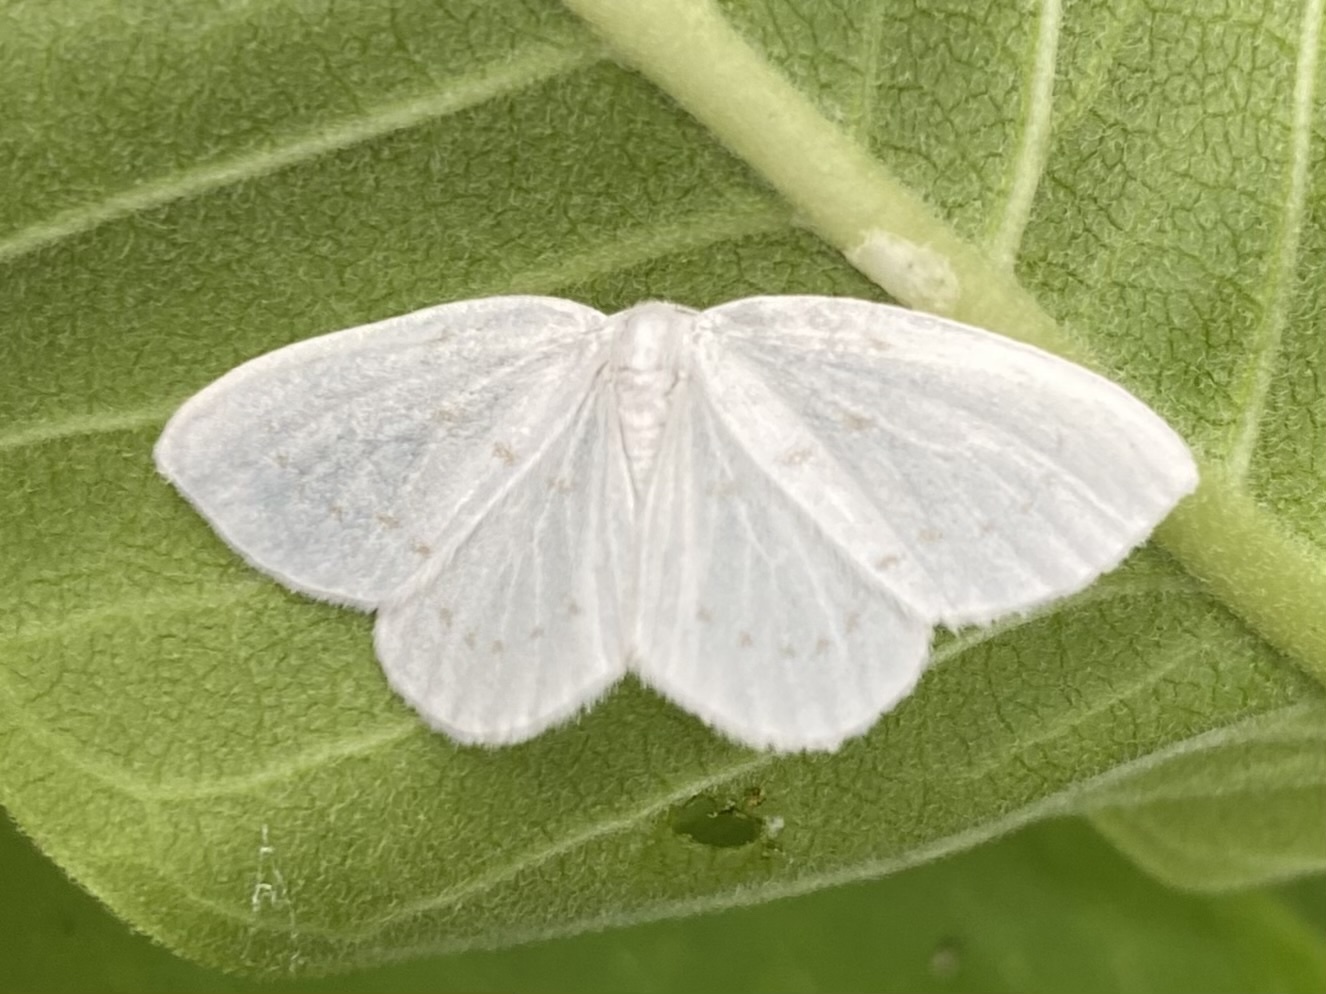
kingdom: Animalia
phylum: Arthropoda
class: Insecta
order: Lepidoptera
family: Drepanidae
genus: Eudeilinia
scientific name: Eudeilinia herminiata
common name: Northern eudeilinea moth
